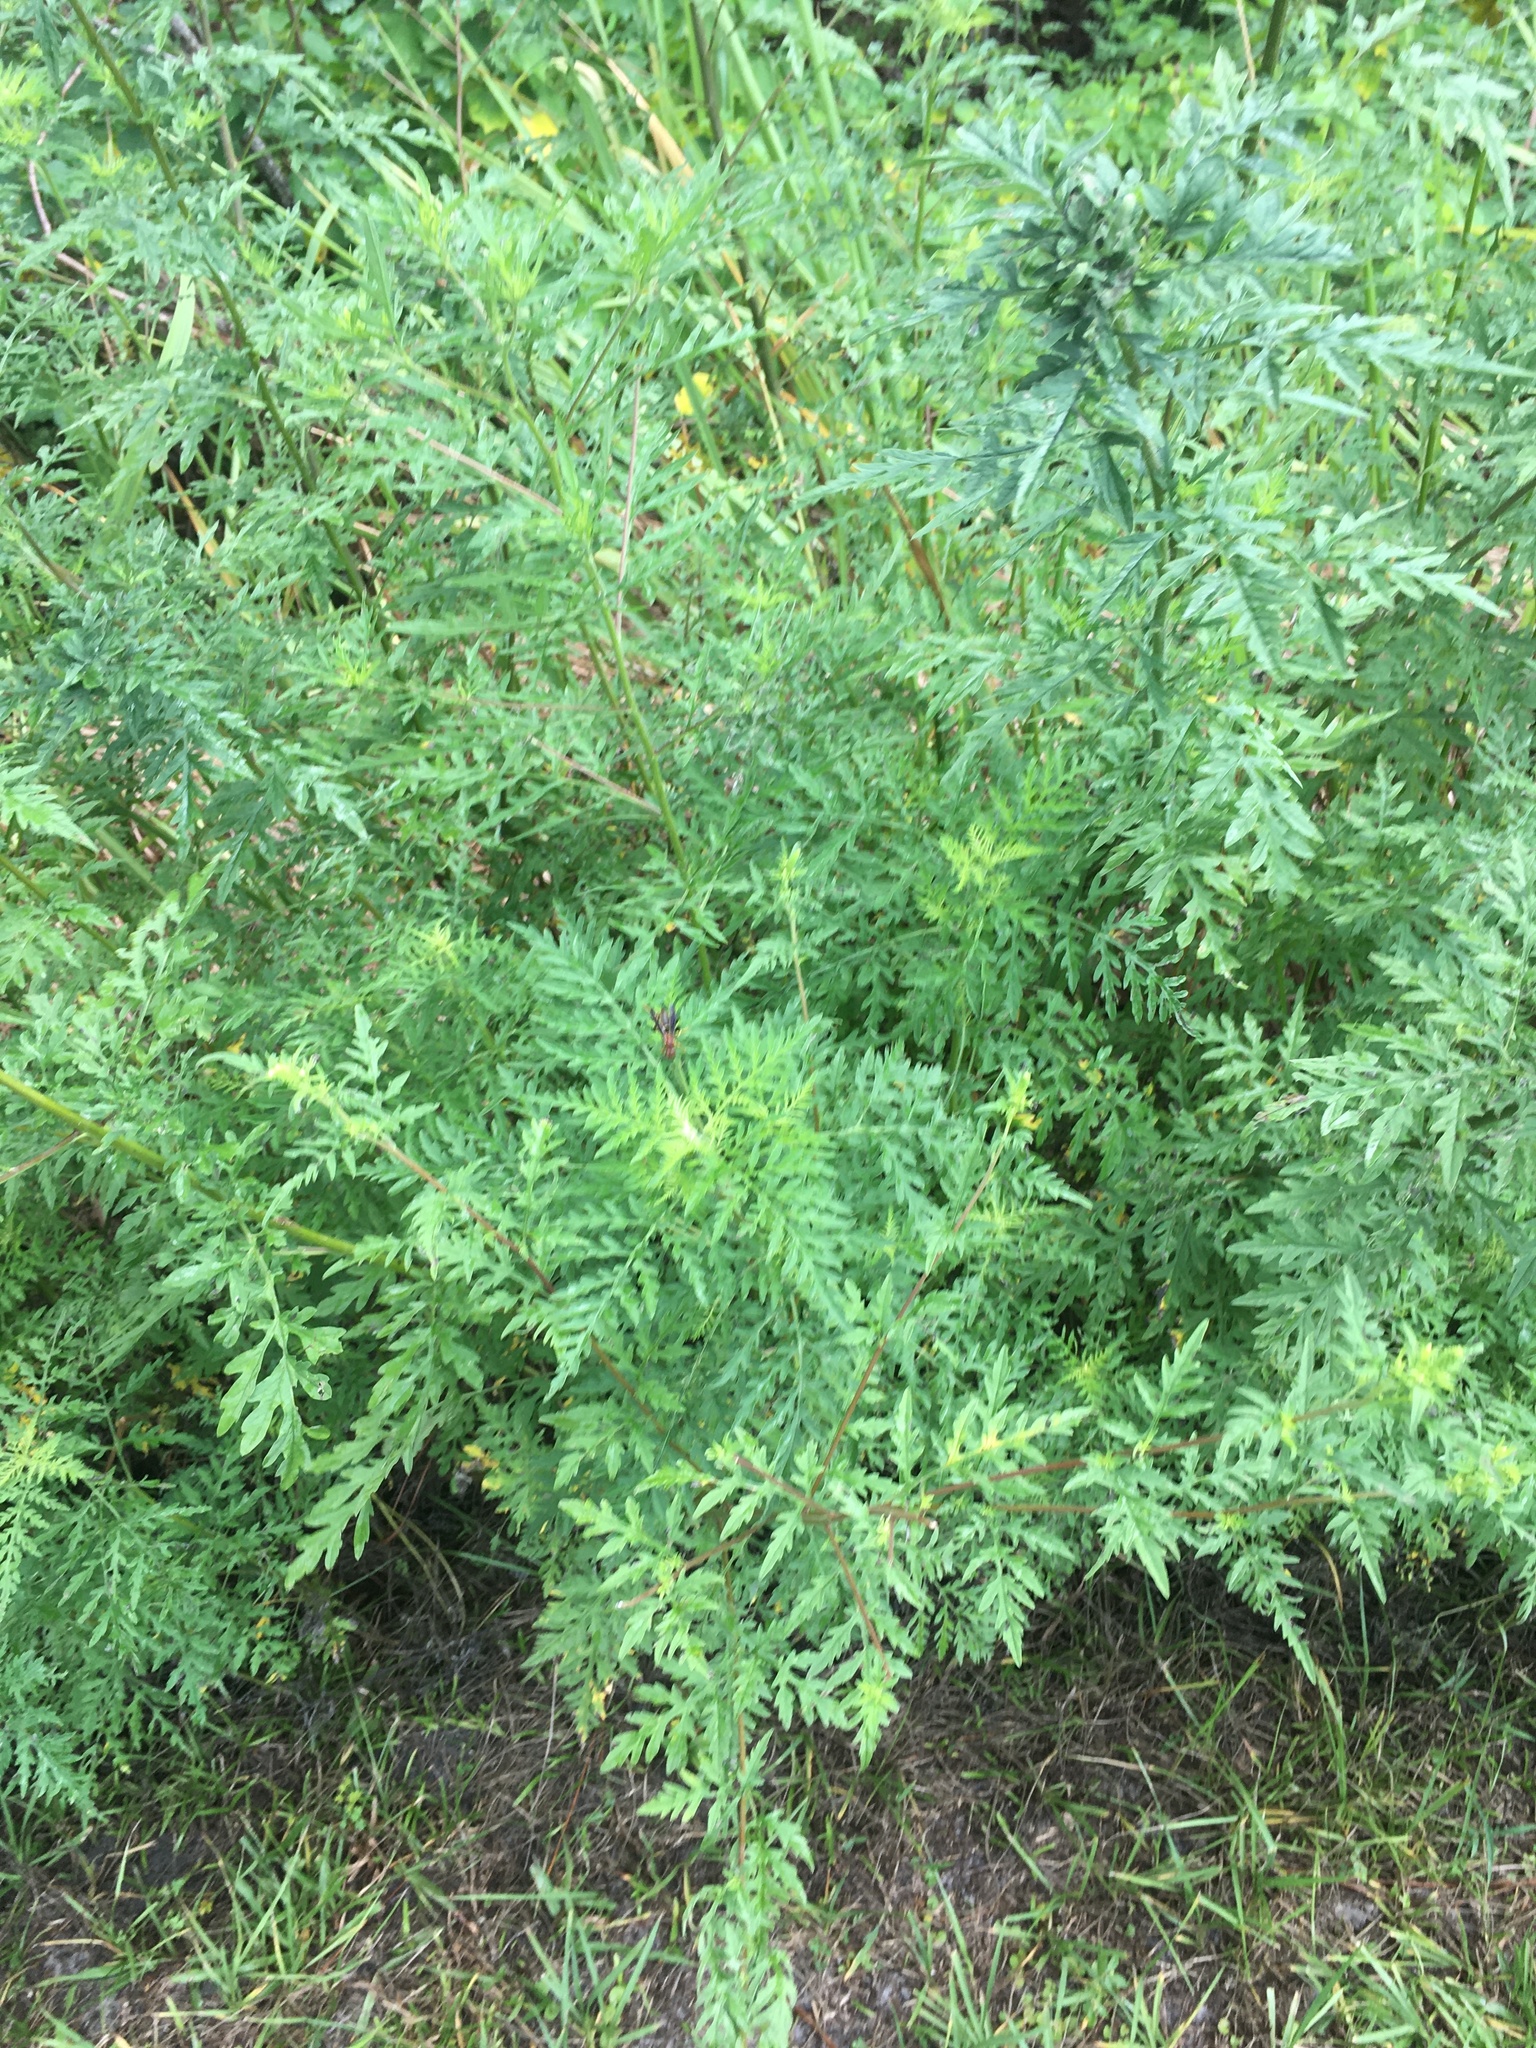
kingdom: Plantae
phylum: Tracheophyta
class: Magnoliopsida
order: Asterales
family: Asteraceae
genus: Ambrosia
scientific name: Ambrosia artemisiifolia
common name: Annual ragweed
